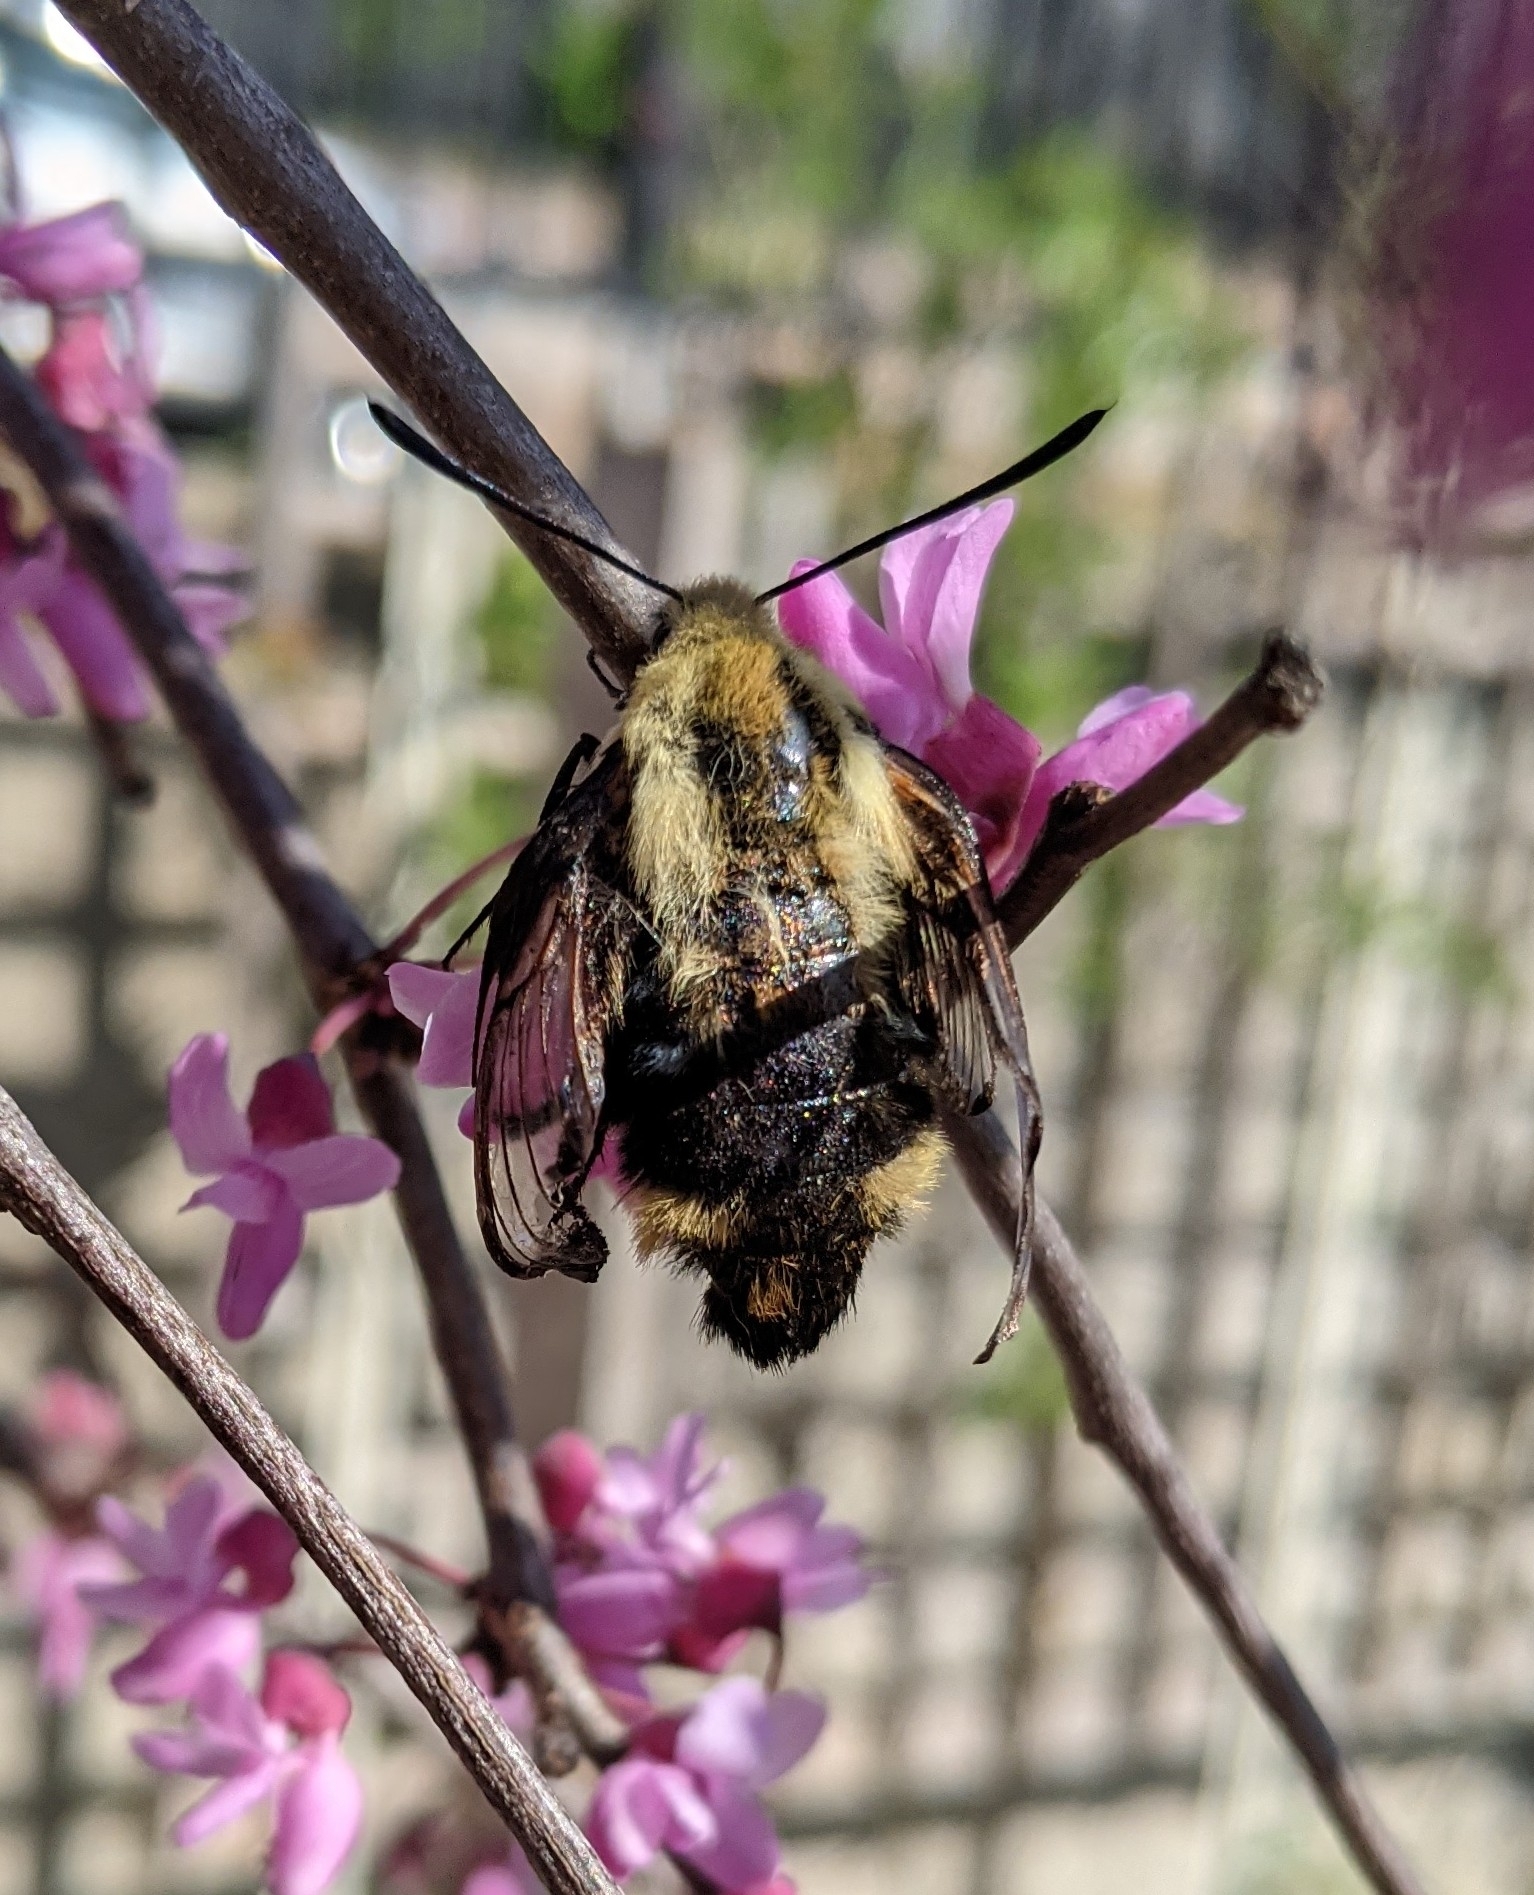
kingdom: Animalia
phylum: Arthropoda
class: Insecta
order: Lepidoptera
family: Sphingidae
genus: Hemaris
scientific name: Hemaris diffinis
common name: Bumblebee moth
